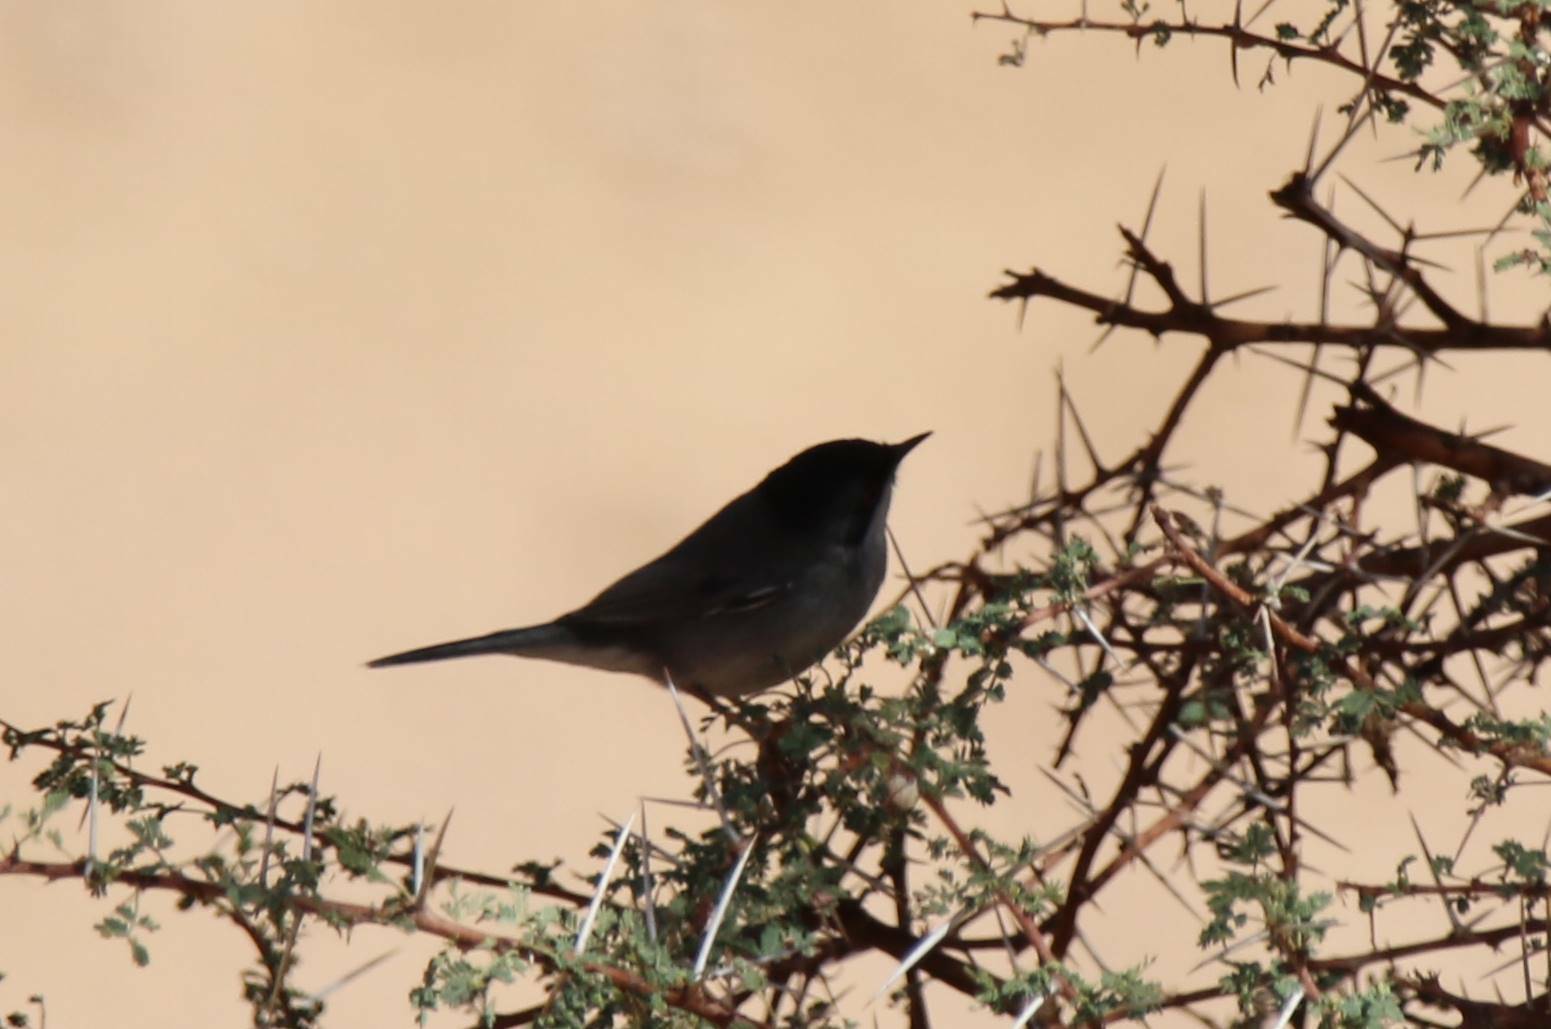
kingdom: Animalia
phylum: Chordata
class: Aves
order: Passeriformes
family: Sylviidae
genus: Curruca
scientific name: Curruca melanocephala
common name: Sardinian warbler
